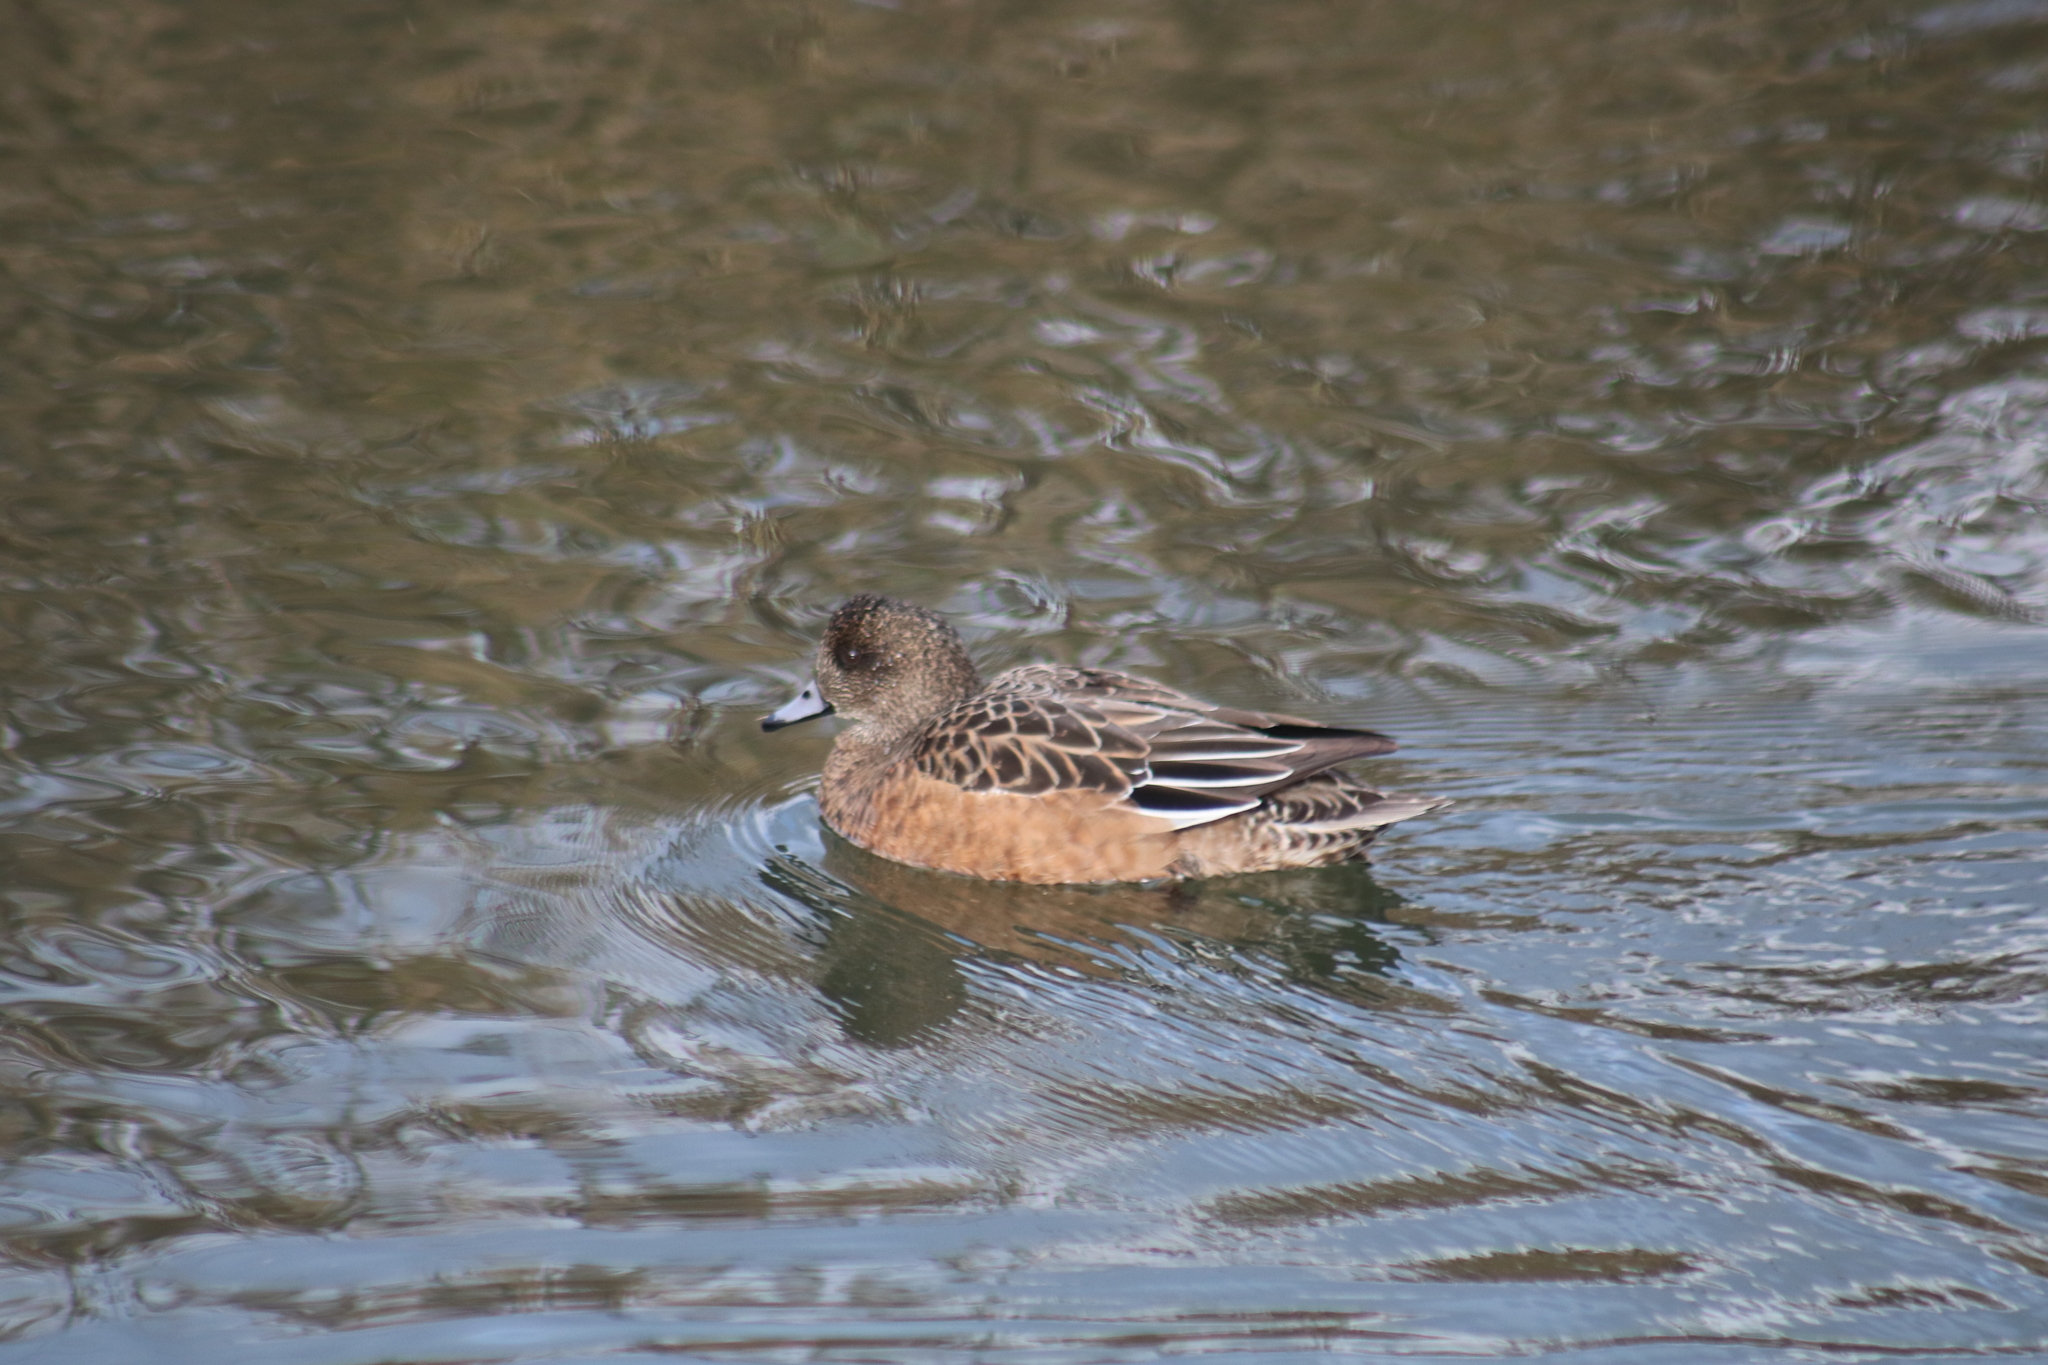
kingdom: Animalia
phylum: Chordata
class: Aves
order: Anseriformes
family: Anatidae
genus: Mareca
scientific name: Mareca americana
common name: American wigeon
